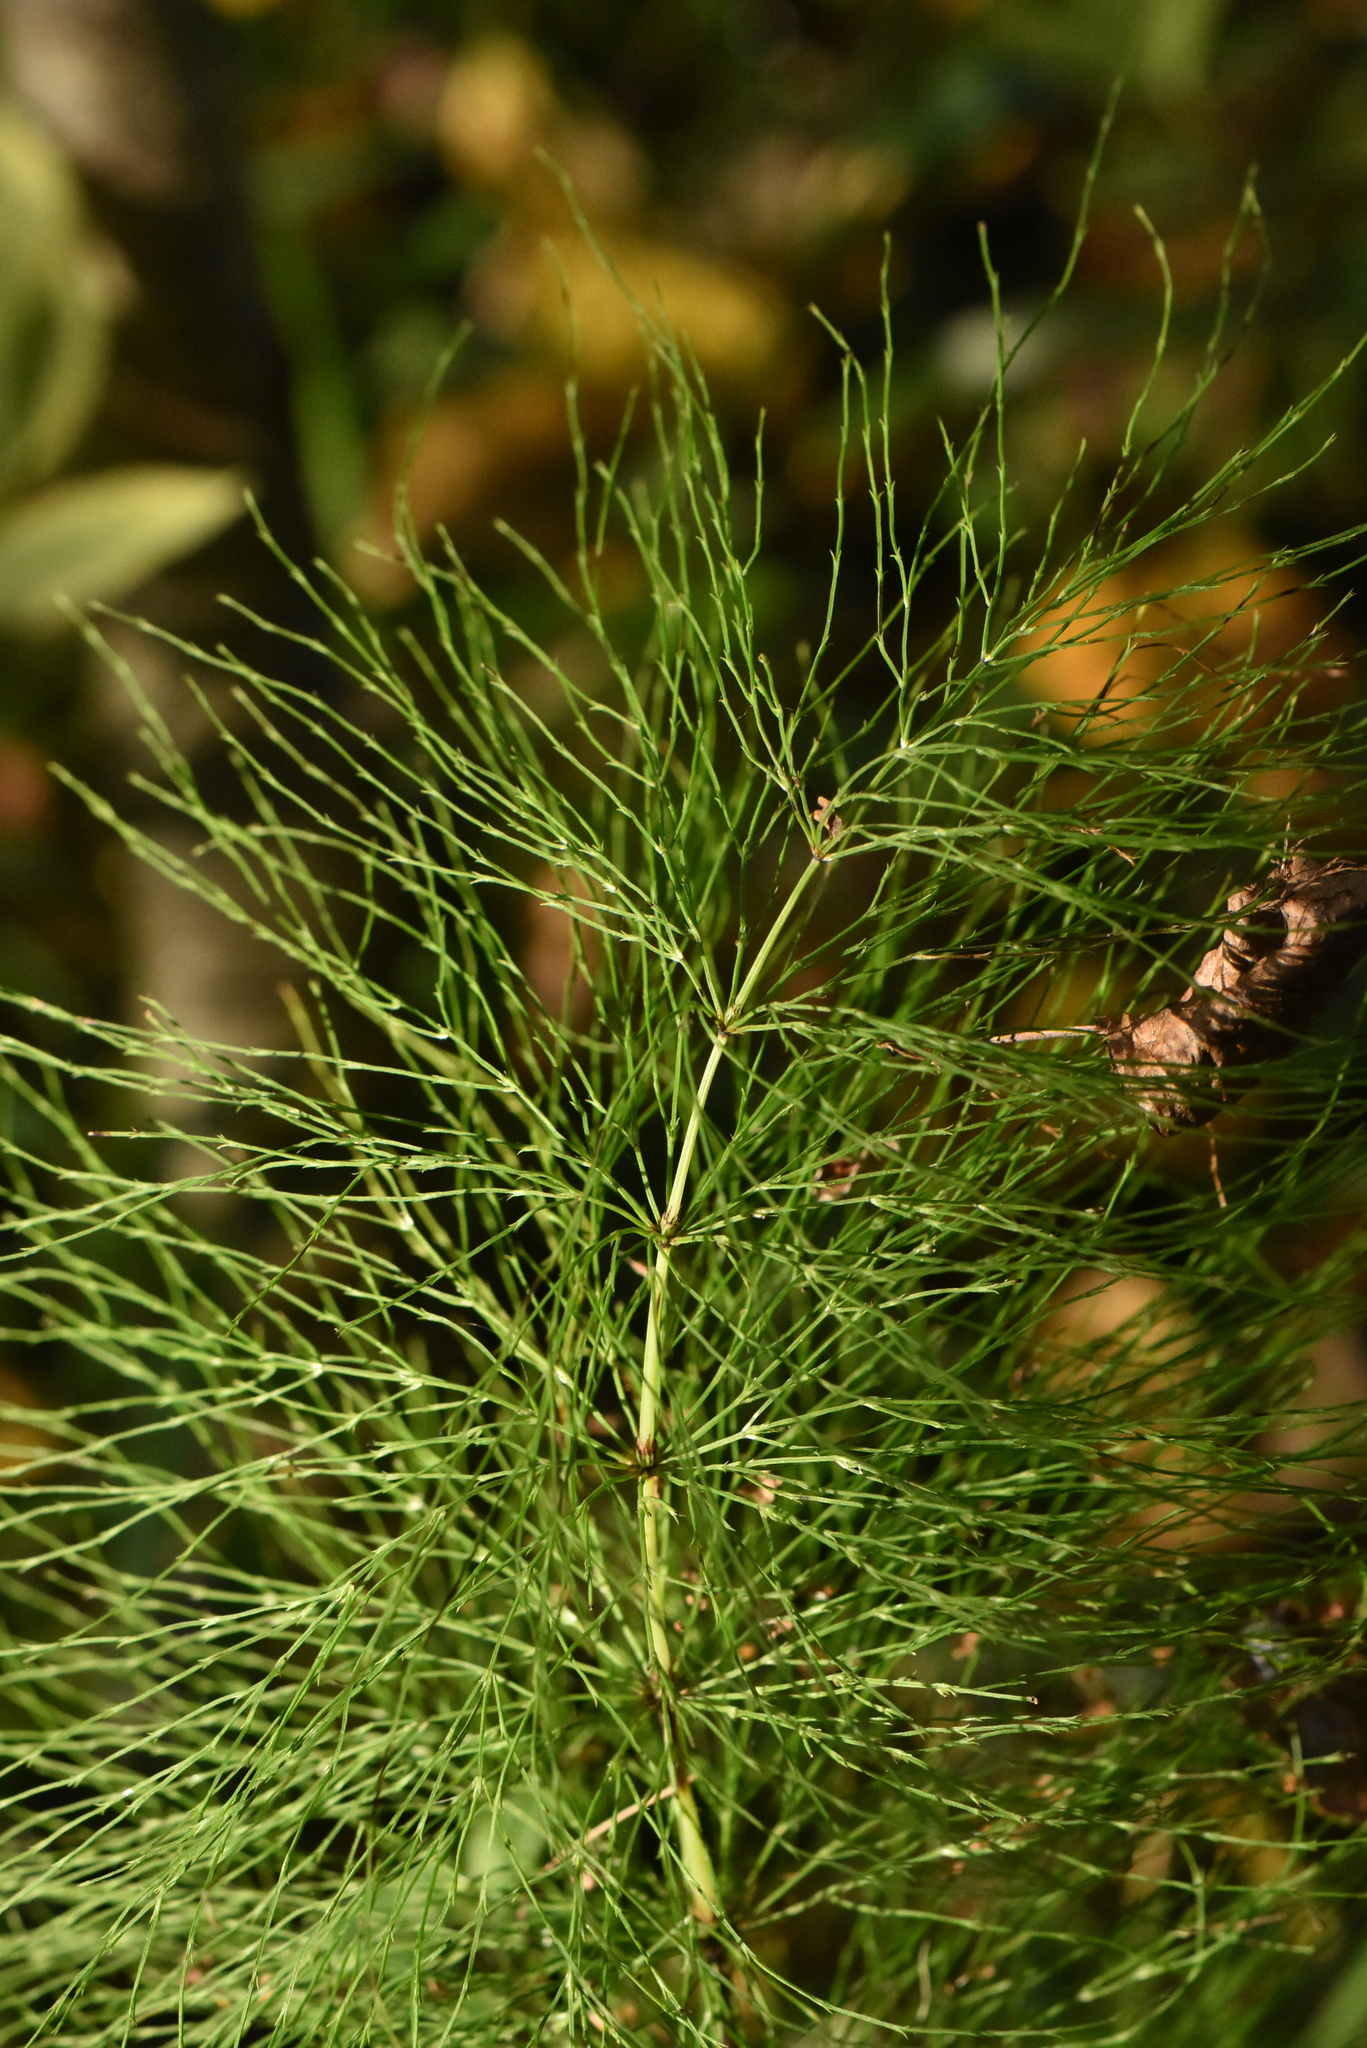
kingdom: Plantae
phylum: Tracheophyta
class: Polypodiopsida
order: Equisetales
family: Equisetaceae
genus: Equisetum
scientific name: Equisetum sylvaticum
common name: Wood horsetail
